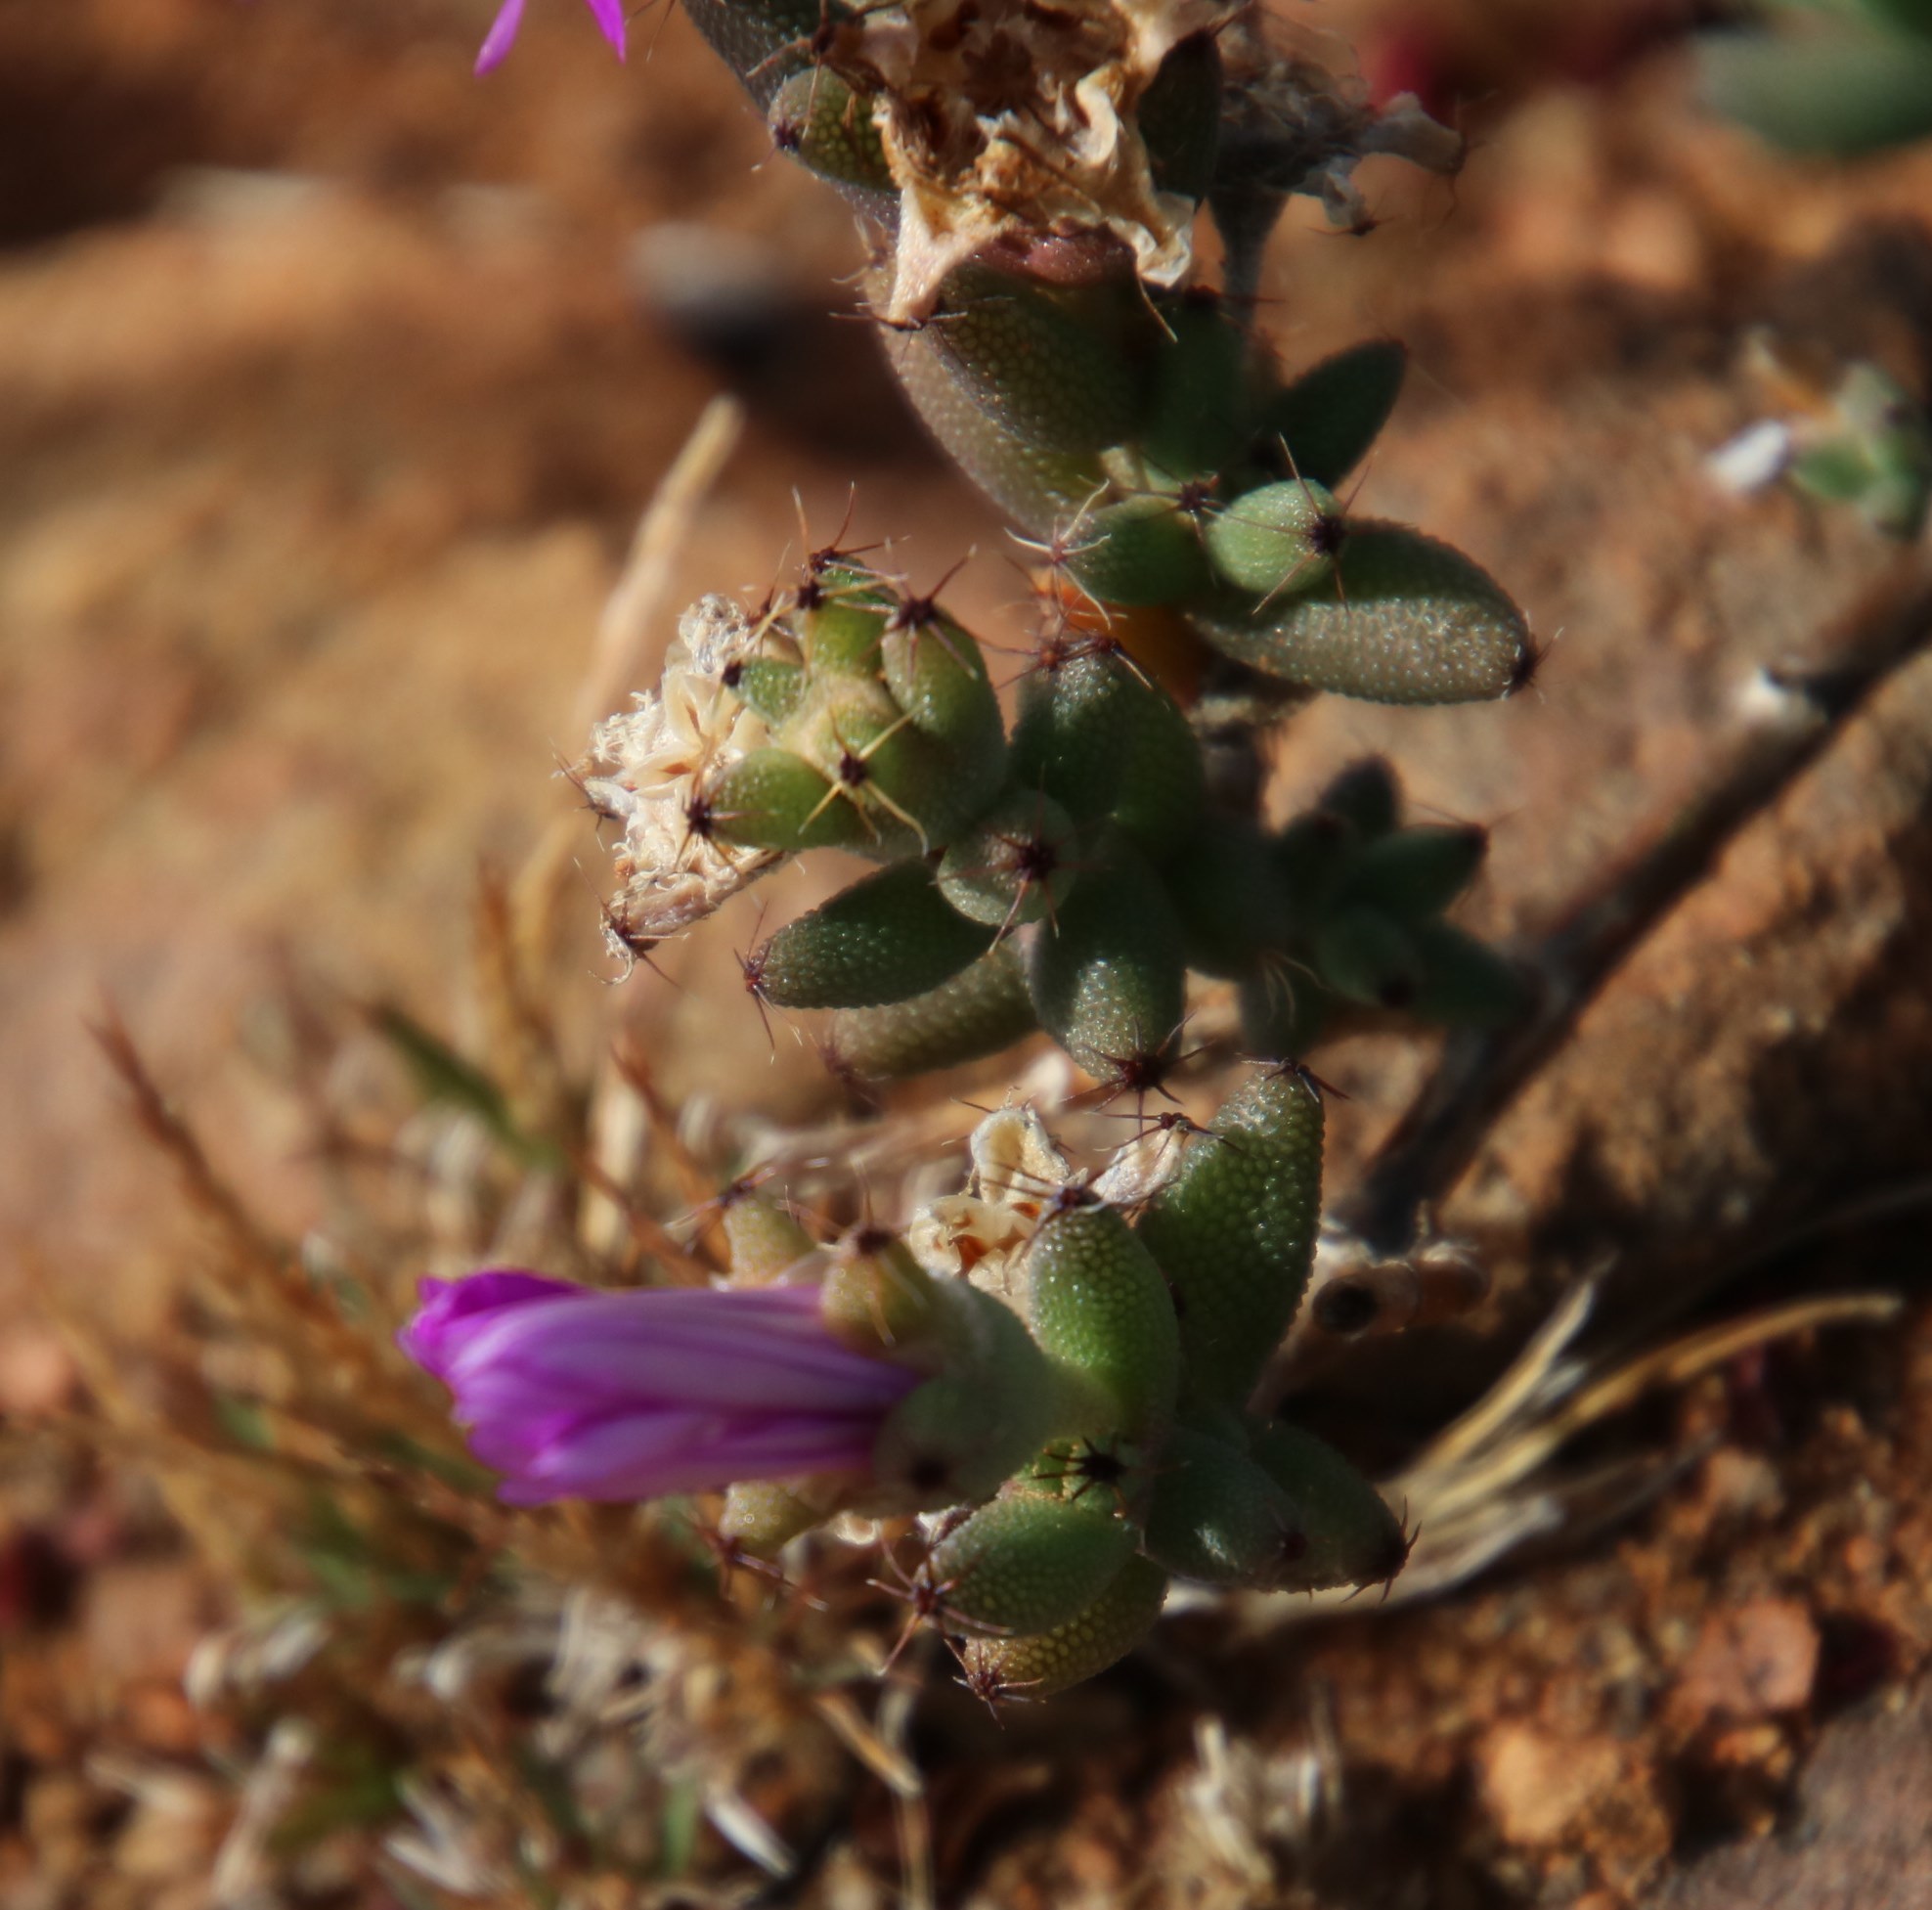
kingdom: Plantae
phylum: Tracheophyta
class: Magnoliopsida
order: Caryophyllales
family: Aizoaceae
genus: Trichodiadema
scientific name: Trichodiadema setuliferum
